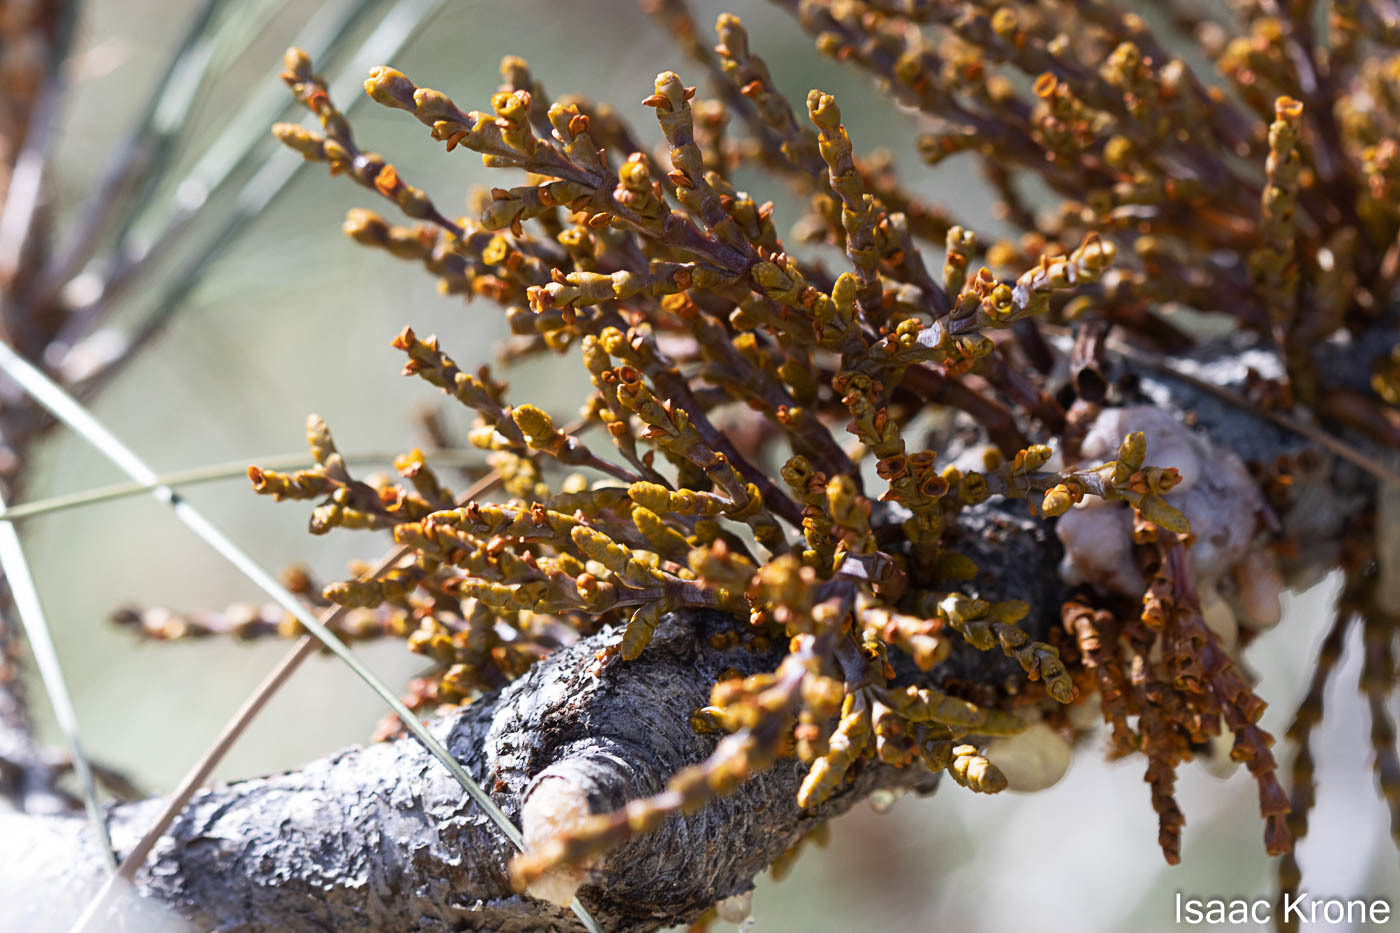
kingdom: Plantae
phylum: Tracheophyta
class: Magnoliopsida
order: Santalales
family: Viscaceae
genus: Arceuthobium
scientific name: Arceuthobium campylopodum
